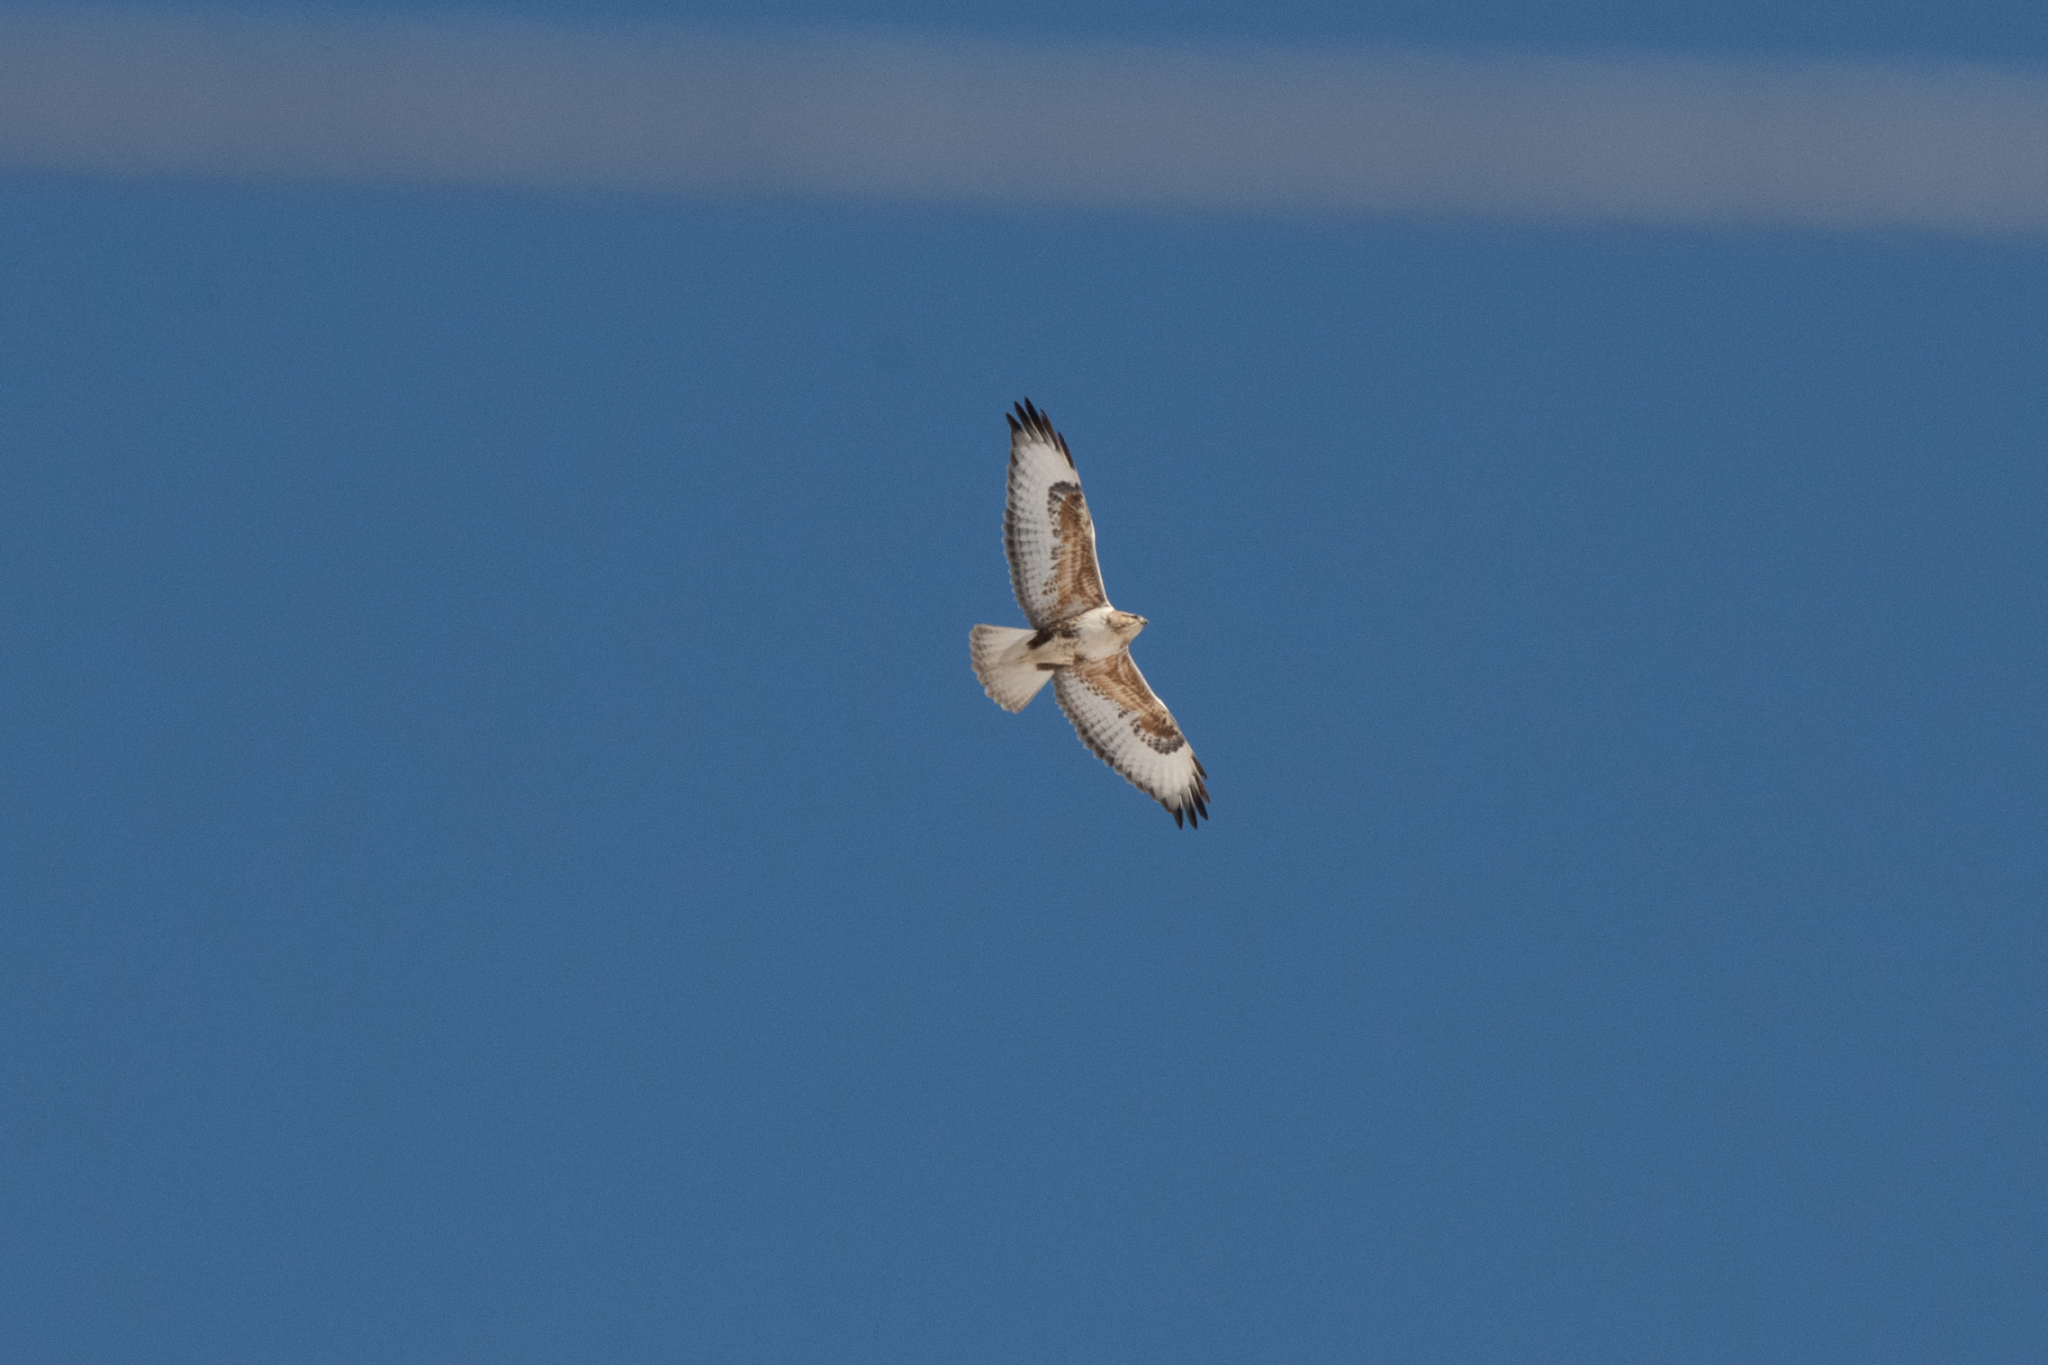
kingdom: Animalia
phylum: Chordata
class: Aves
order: Accipitriformes
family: Accipitridae
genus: Buteo
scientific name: Buteo hemilasius
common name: Upland buzzard
